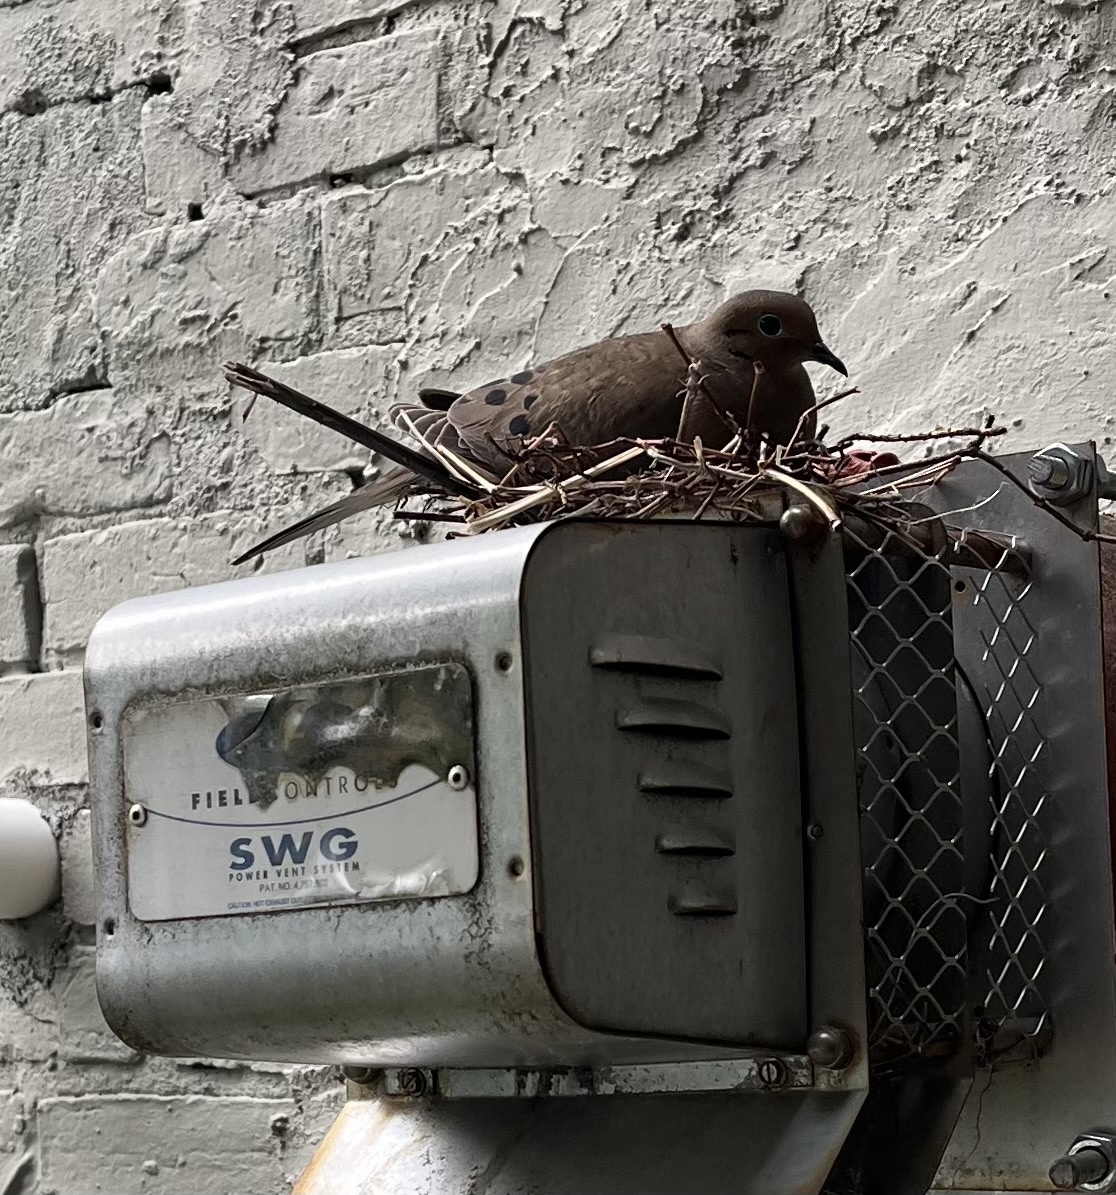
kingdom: Animalia
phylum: Chordata
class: Aves
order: Columbiformes
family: Columbidae
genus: Zenaida
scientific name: Zenaida macroura
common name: Mourning dove
